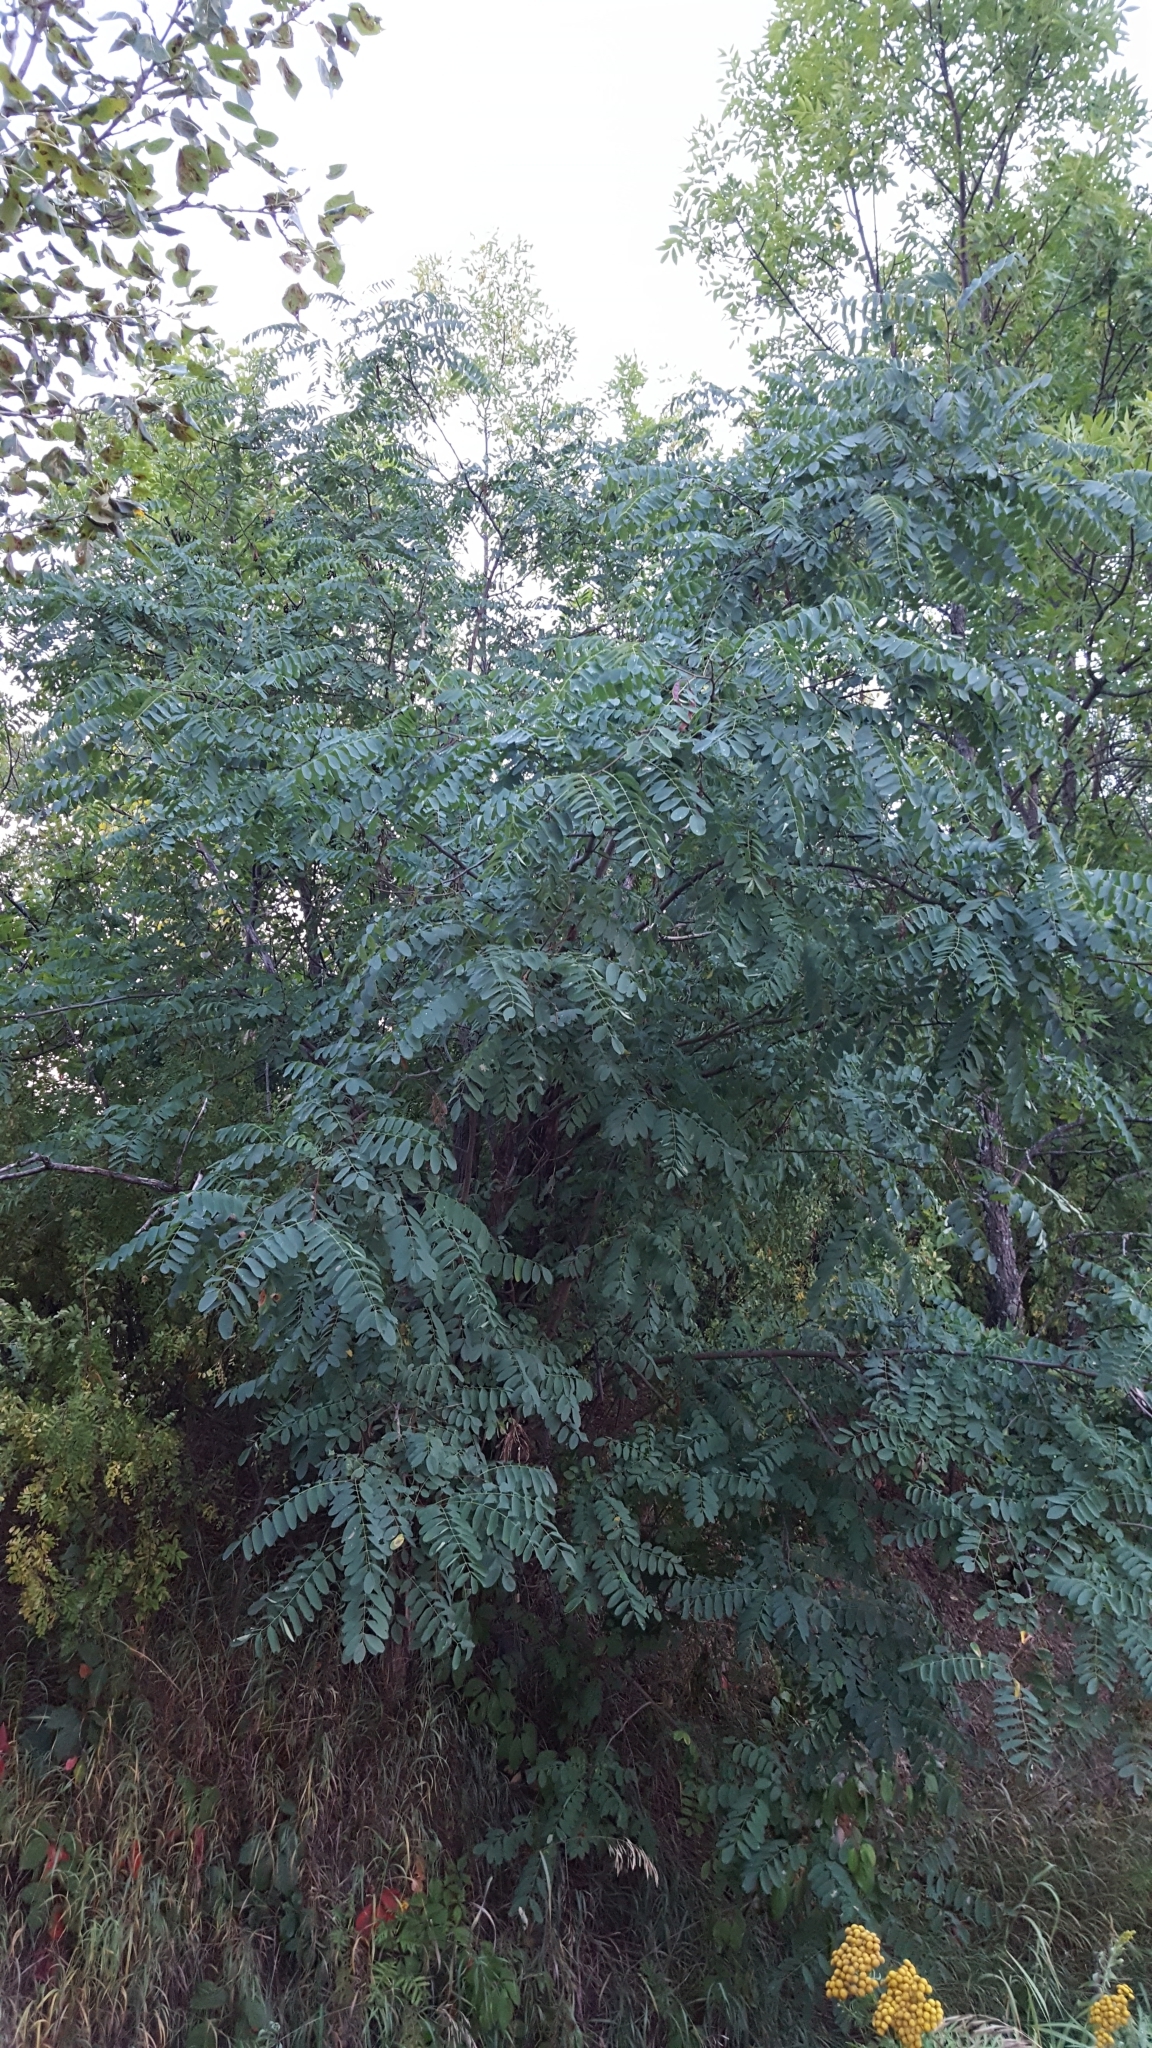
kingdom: Plantae
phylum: Tracheophyta
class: Magnoliopsida
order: Fabales
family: Fabaceae
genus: Robinia
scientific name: Robinia pseudoacacia
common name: Black locust
